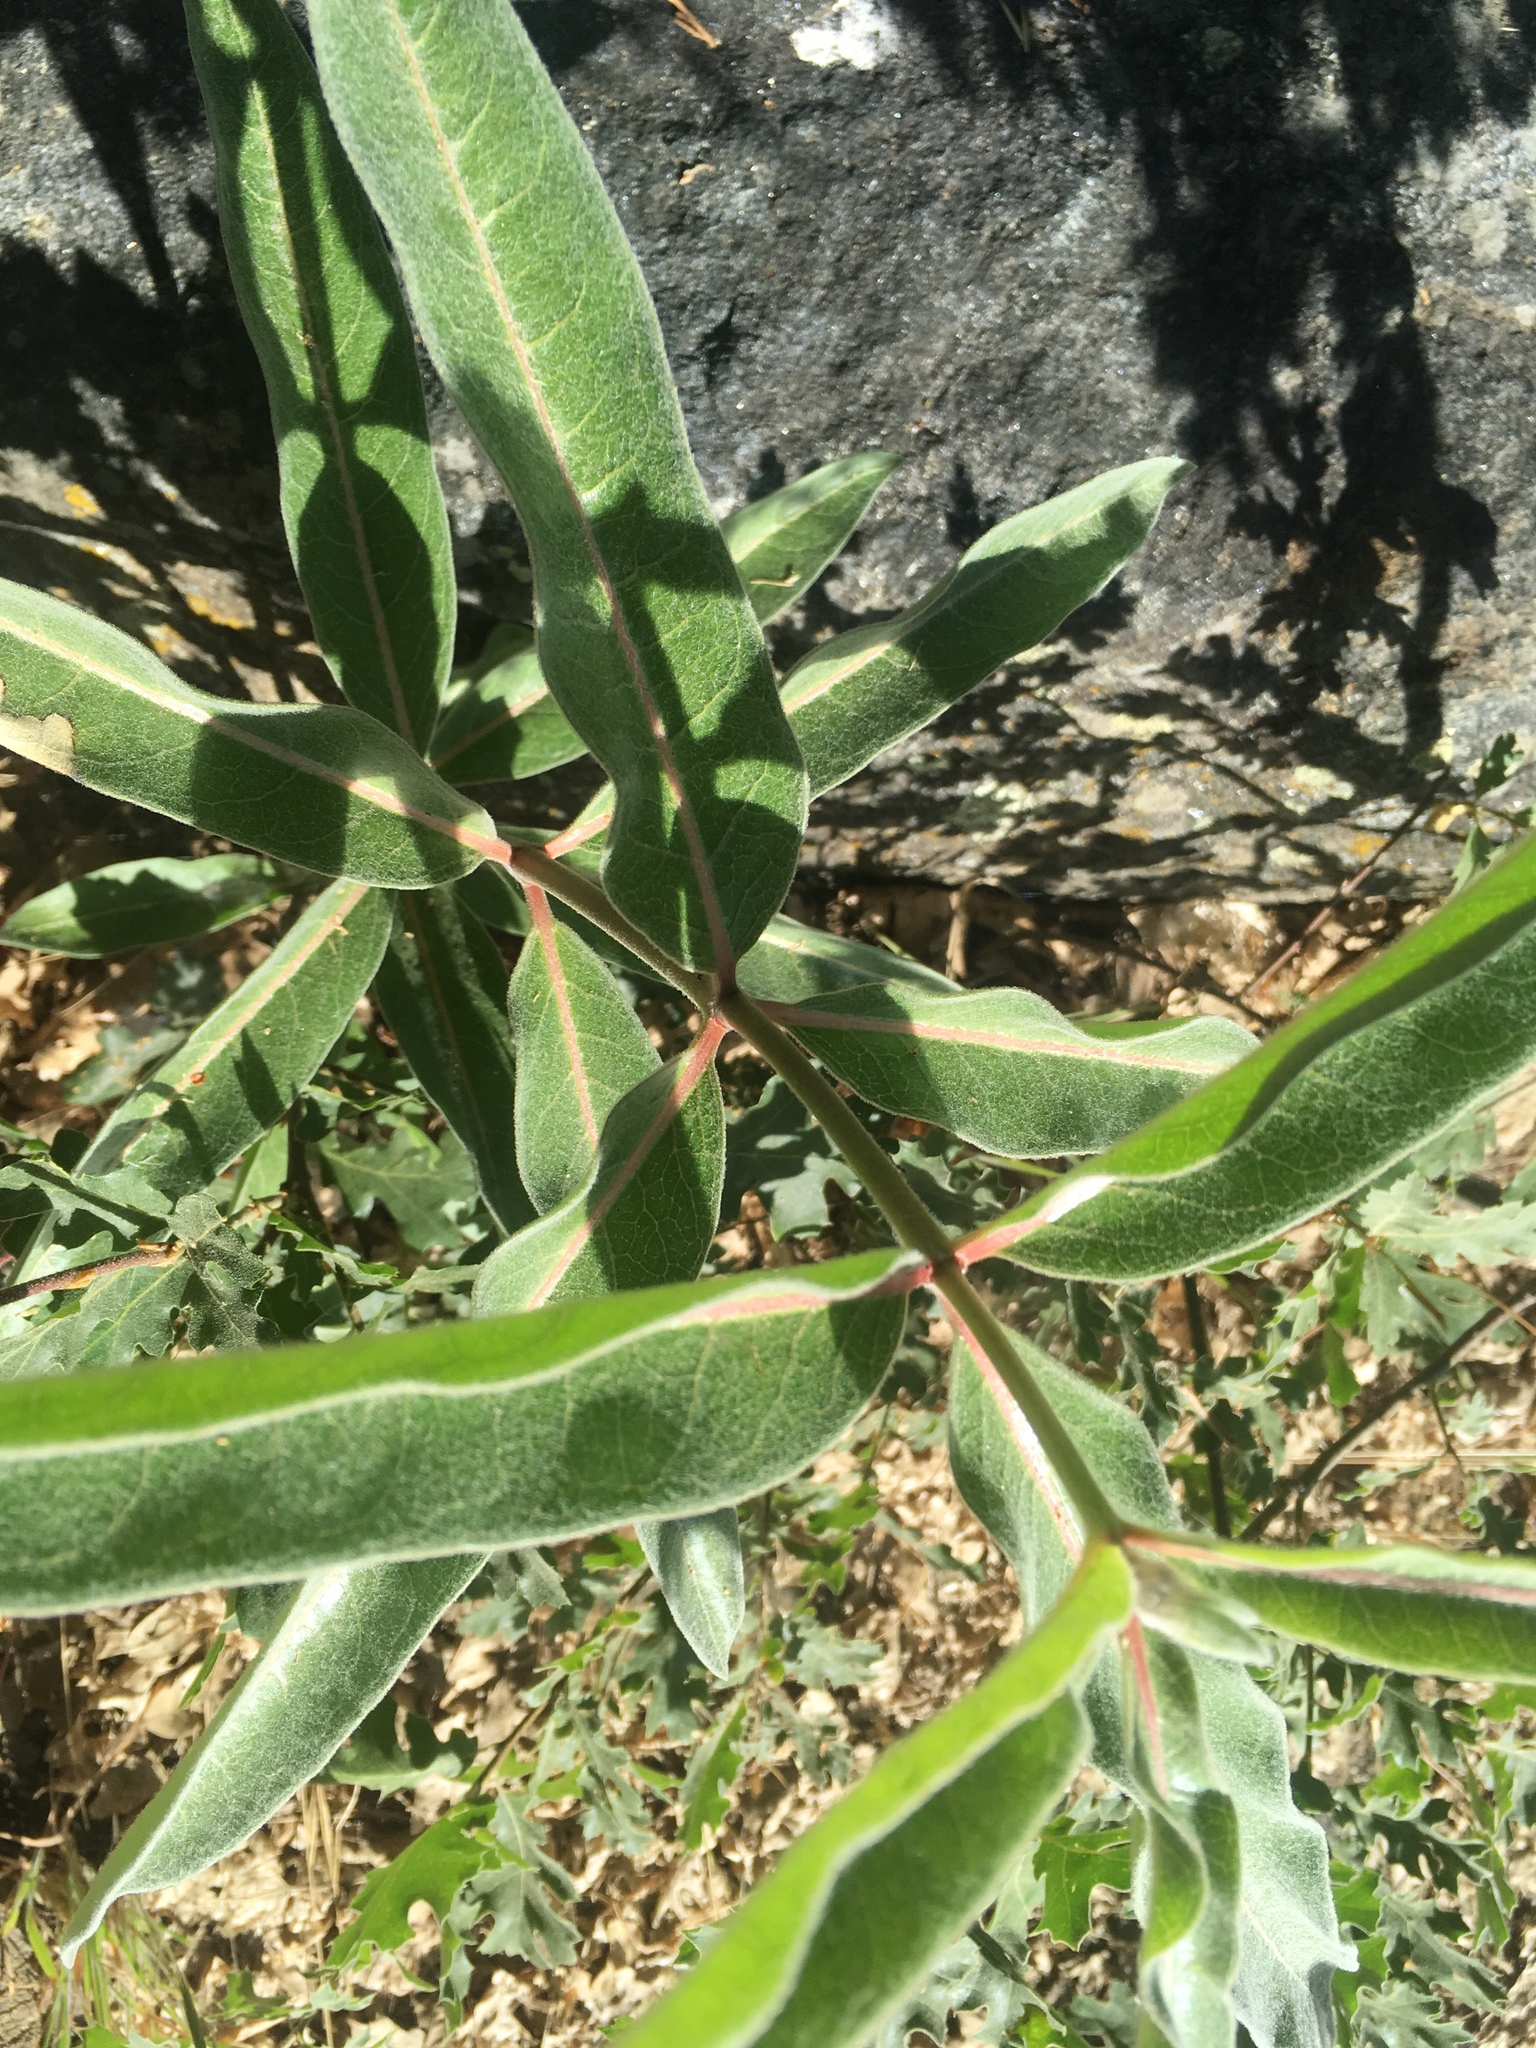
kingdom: Plantae
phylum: Tracheophyta
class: Magnoliopsida
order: Gentianales
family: Apocynaceae
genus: Asclepias
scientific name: Asclepias eriocarpa
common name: Indian milkweed
